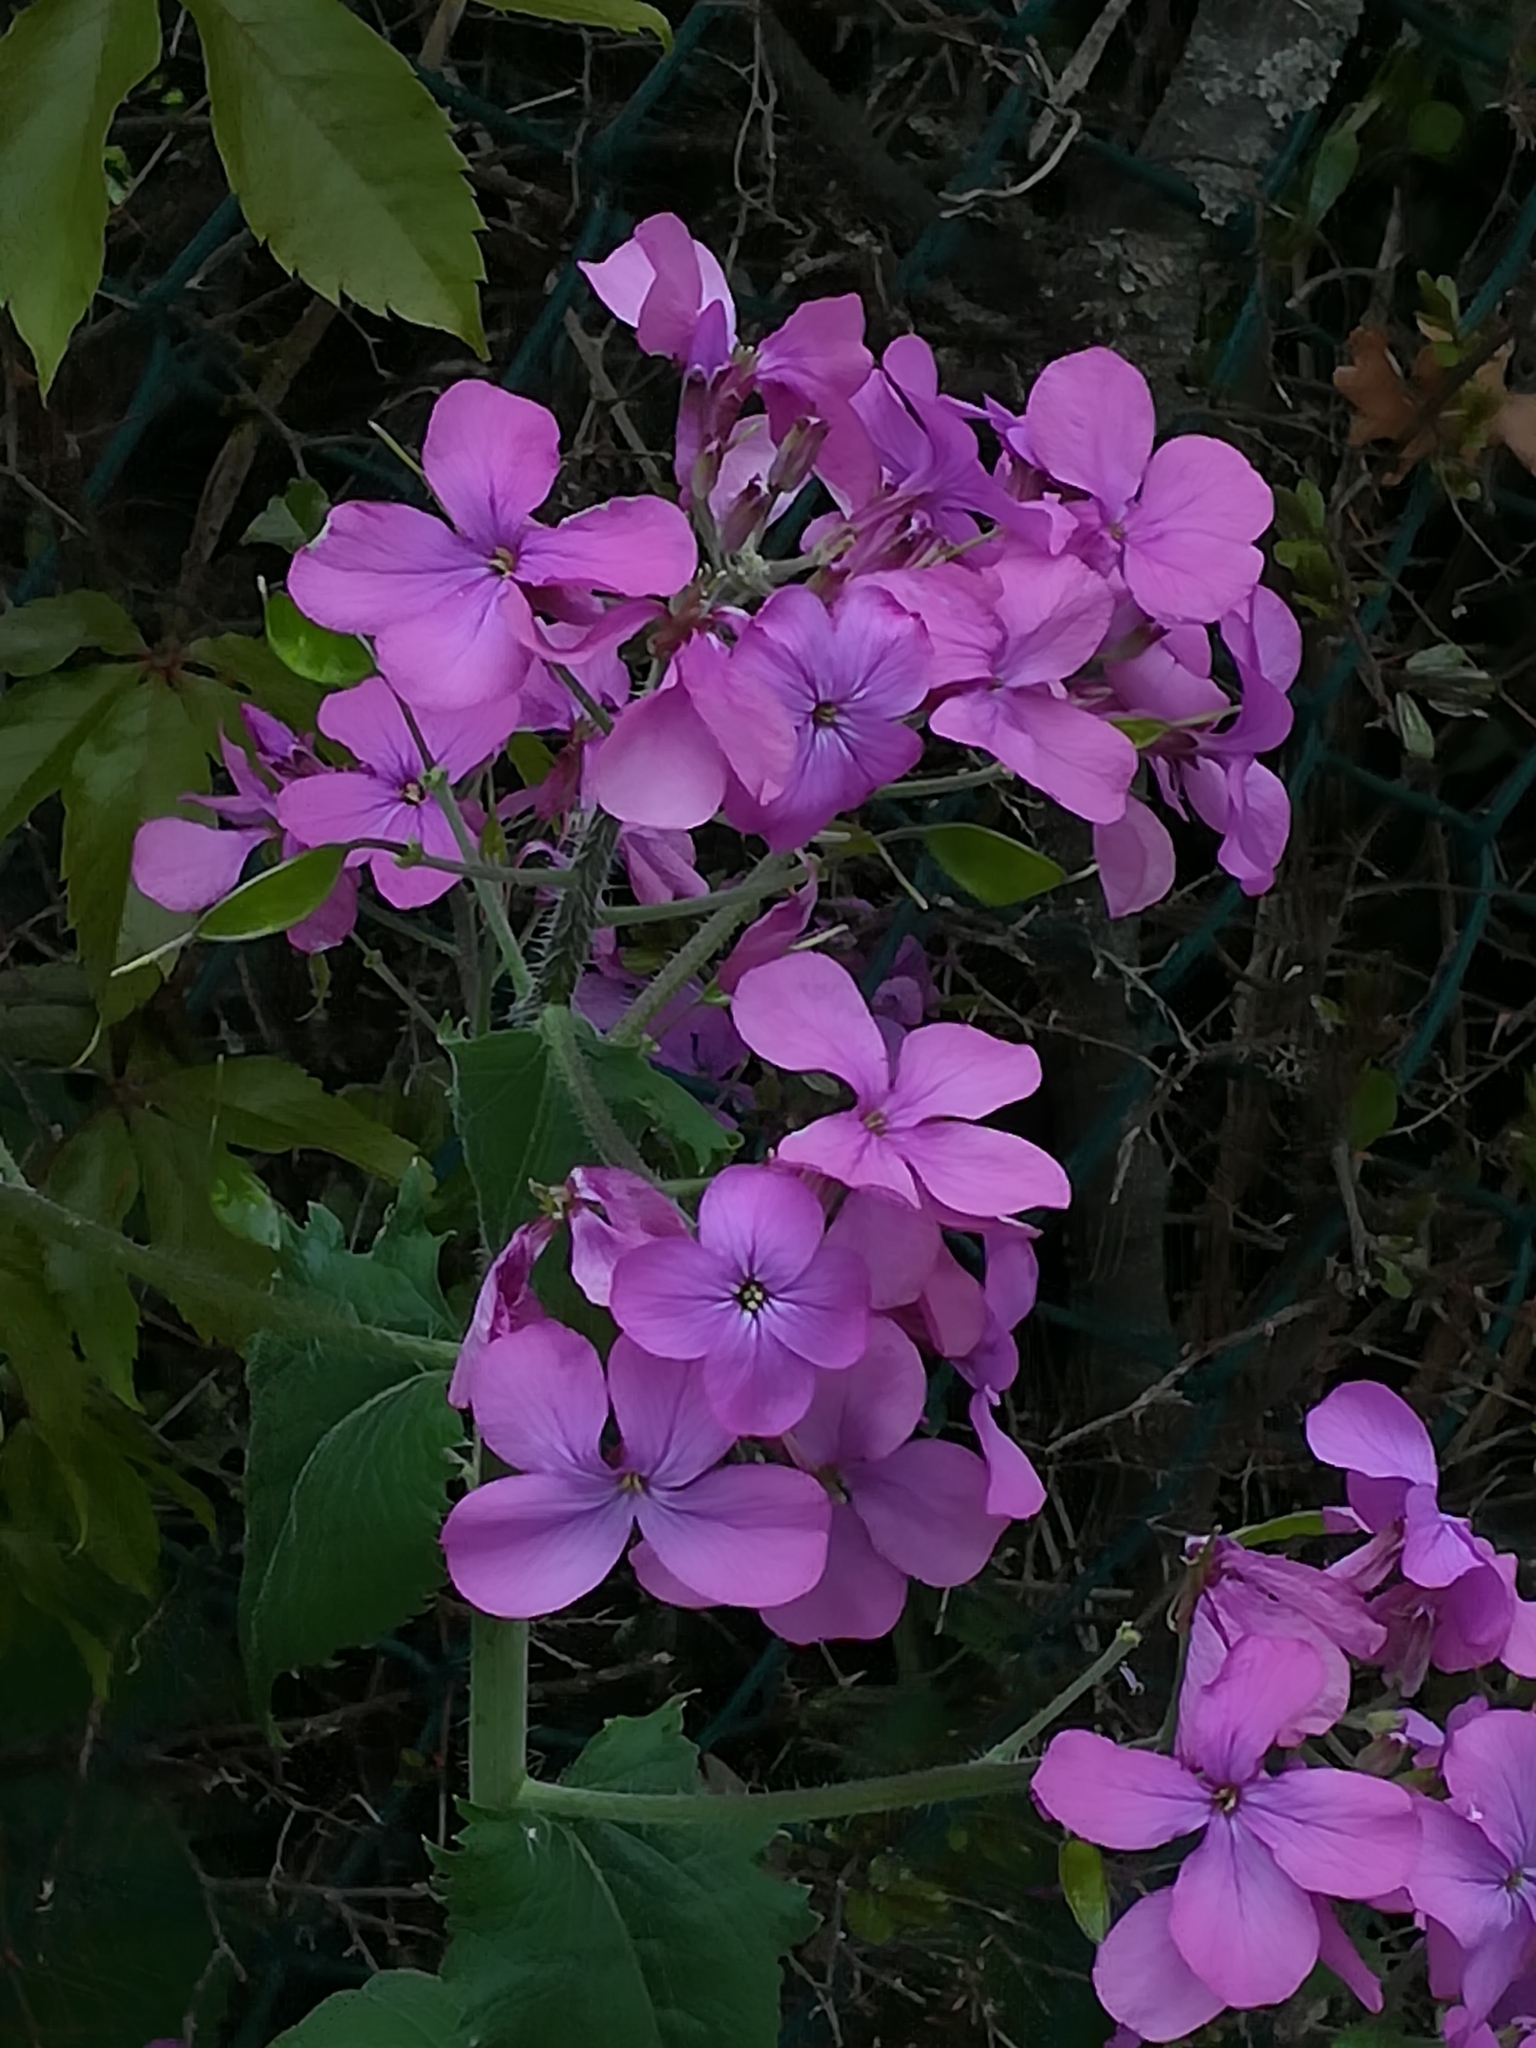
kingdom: Plantae
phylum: Tracheophyta
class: Magnoliopsida
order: Brassicales
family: Brassicaceae
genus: Lunaria
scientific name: Lunaria annua
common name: Honesty
